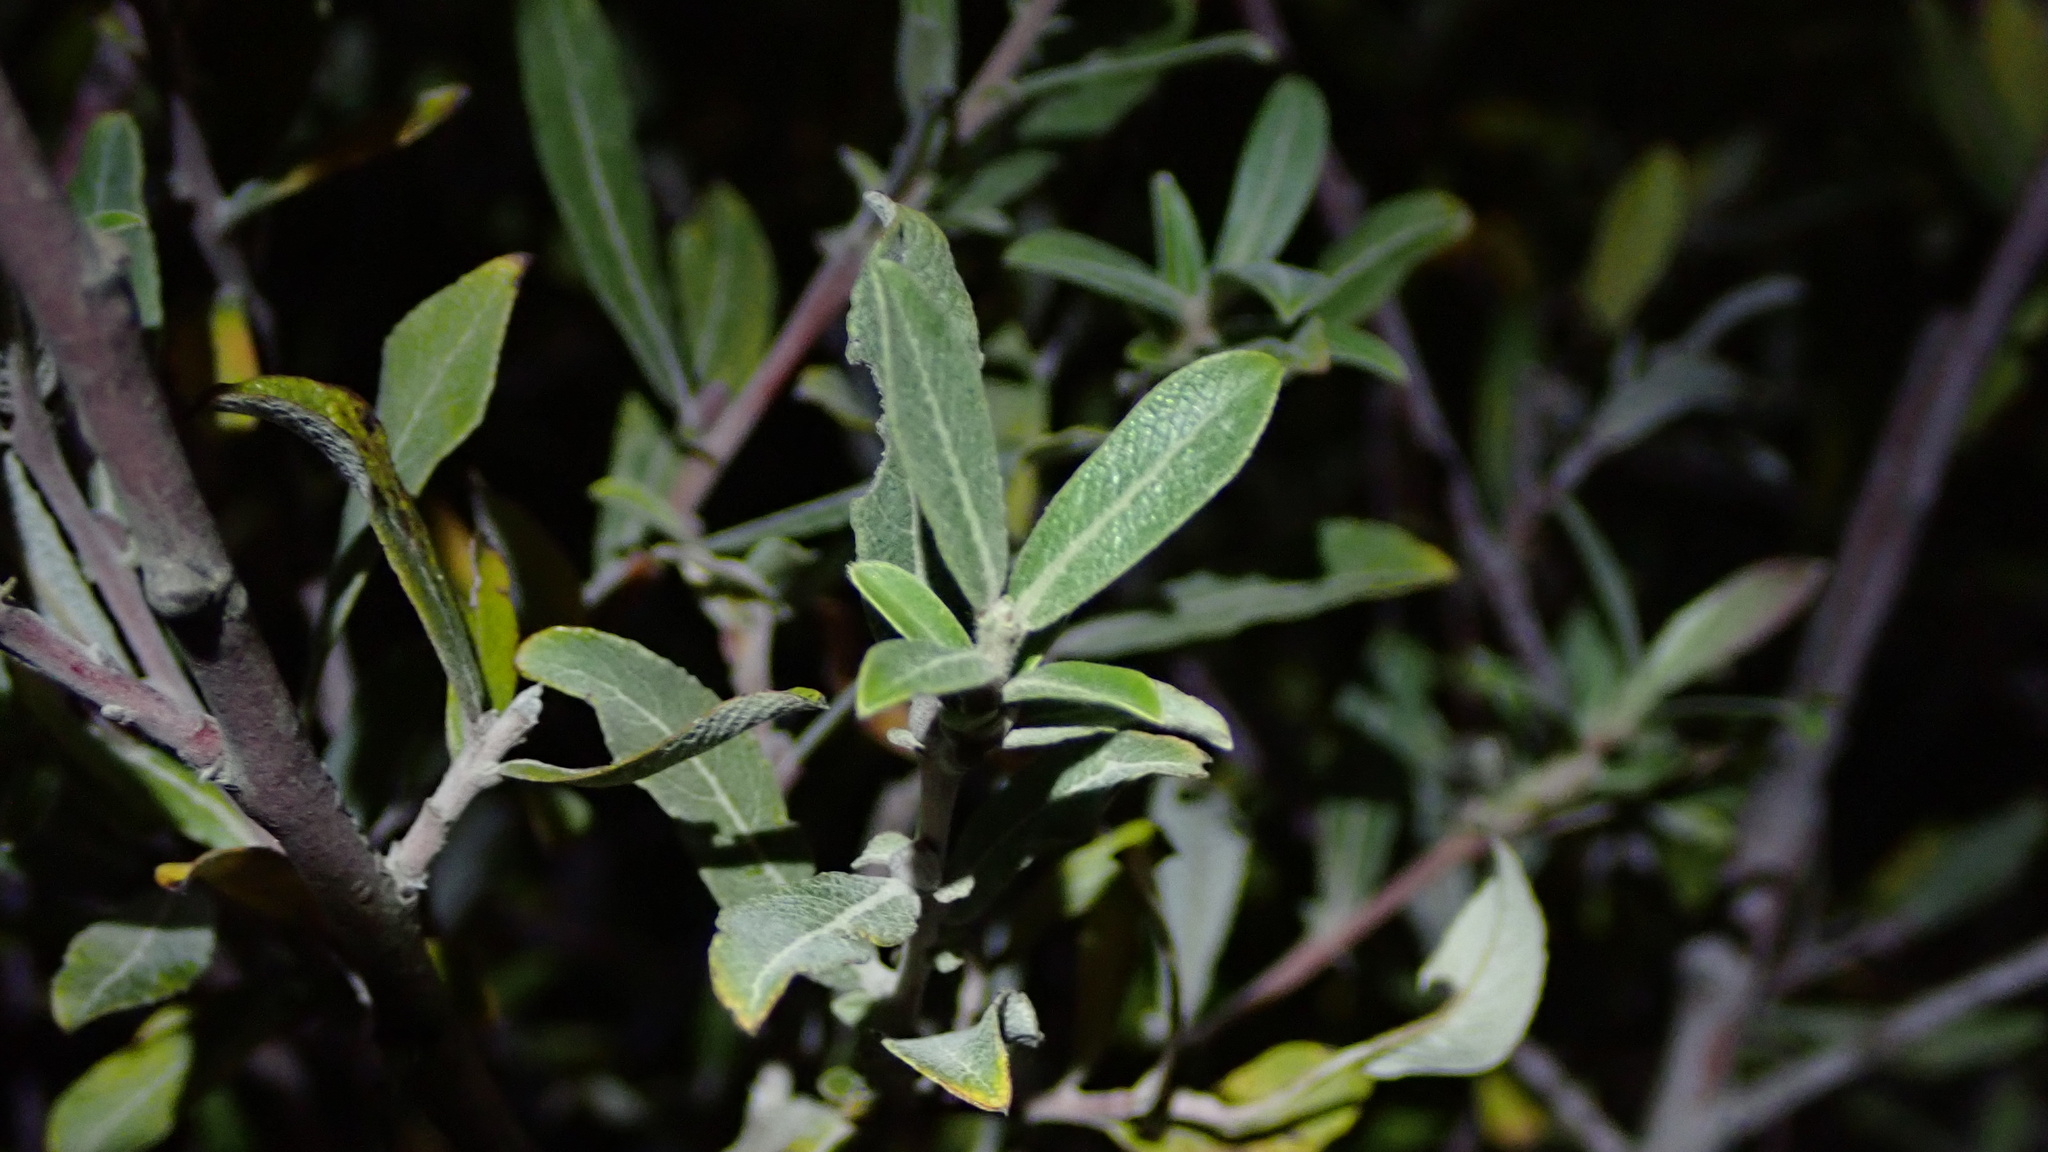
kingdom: Plantae
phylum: Tracheophyta
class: Magnoliopsida
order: Malpighiales
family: Salicaceae
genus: Salix
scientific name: Salix salviifolia
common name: Salvia-leaf willow
